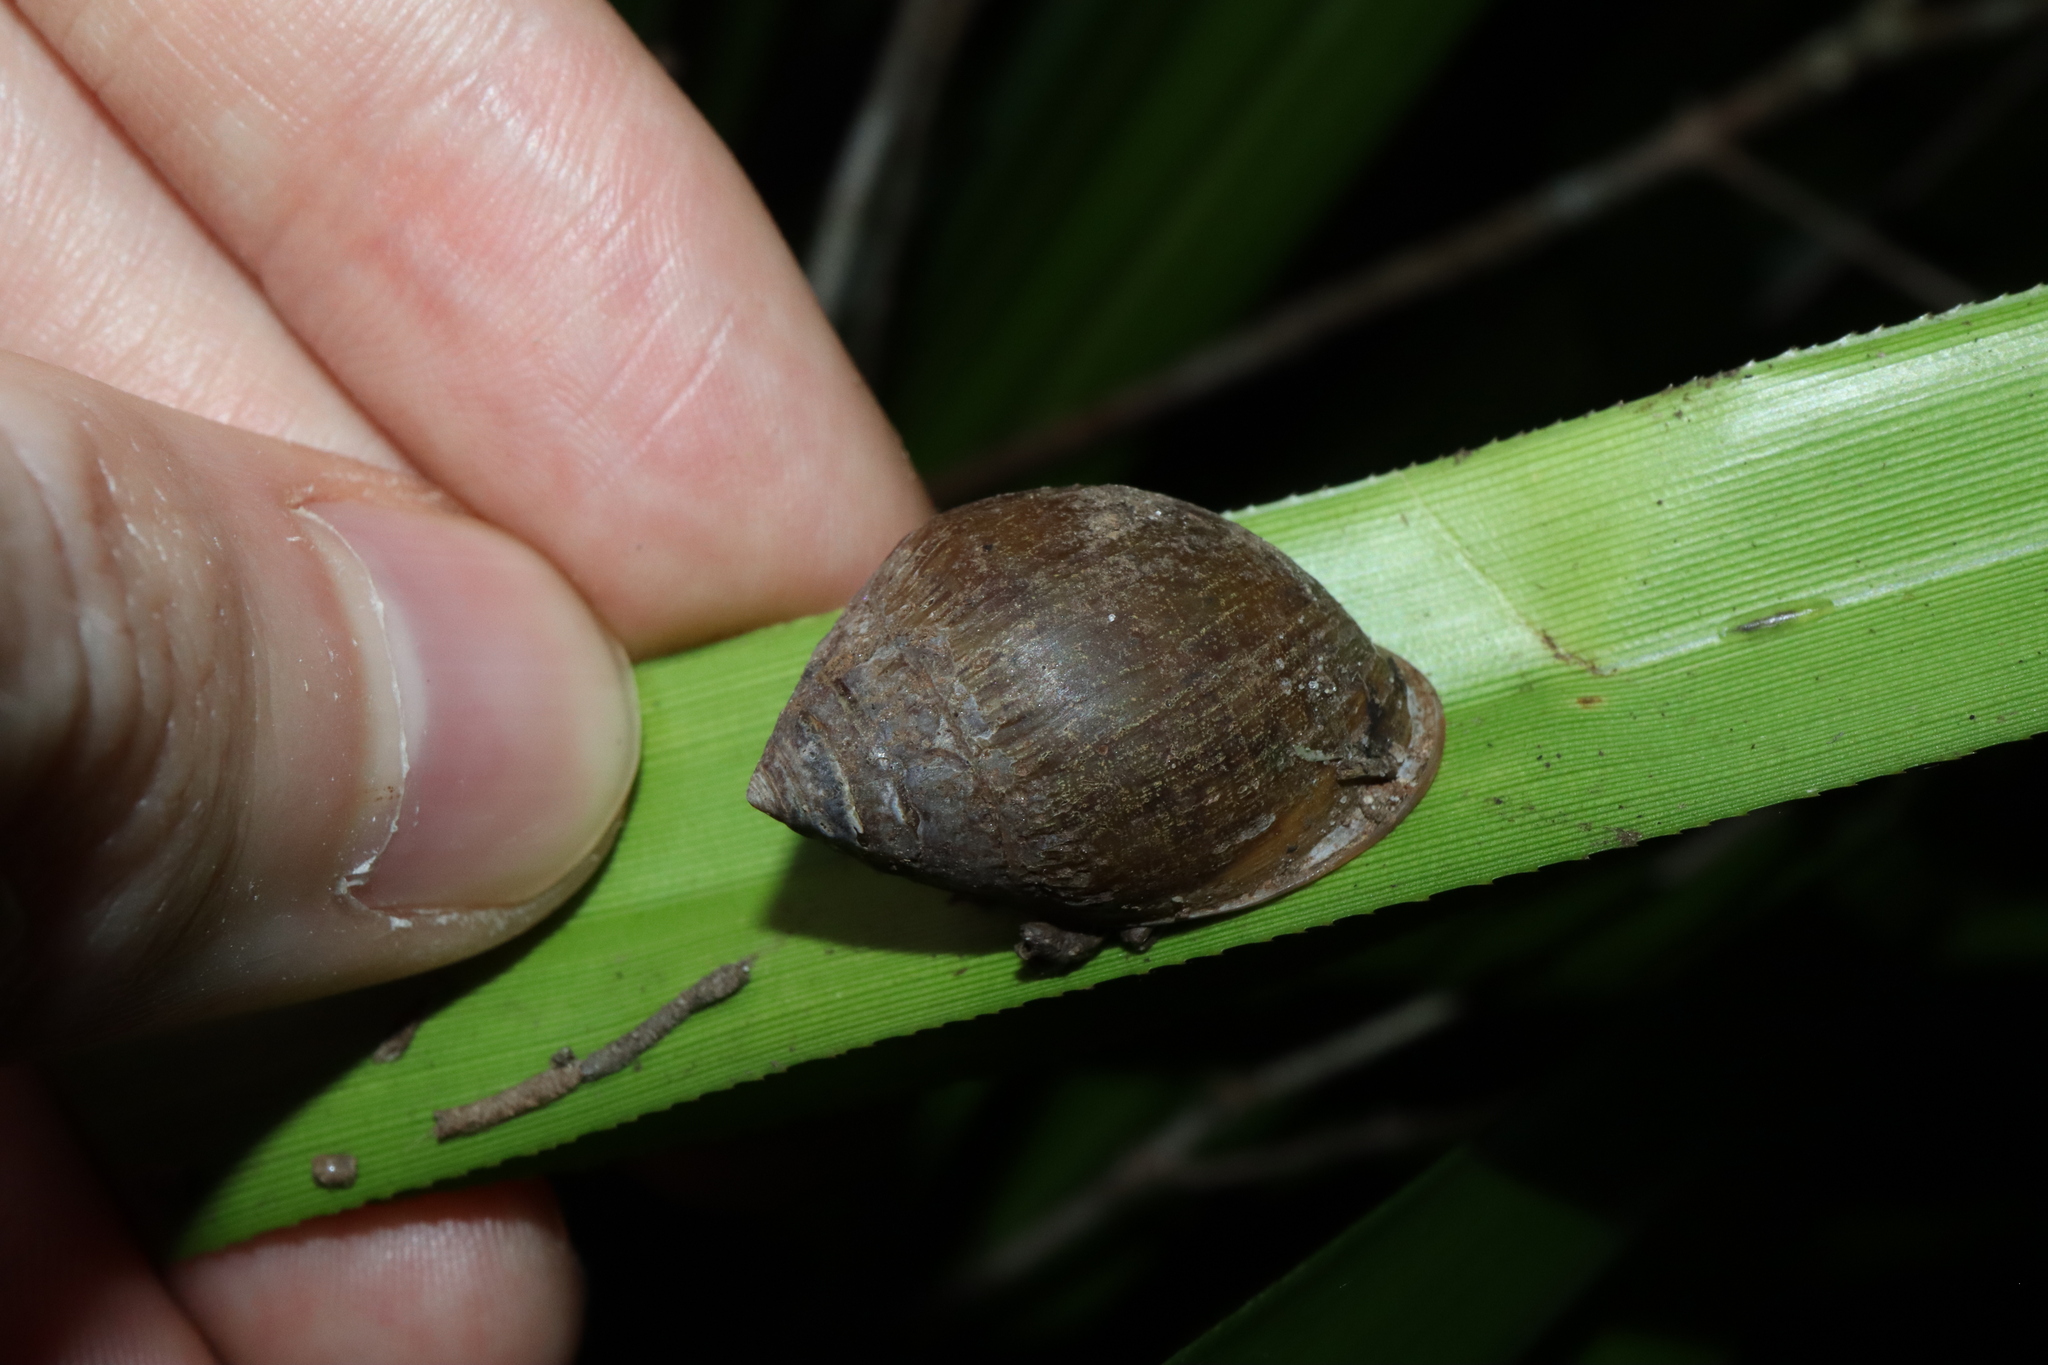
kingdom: Animalia
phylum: Mollusca
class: Gastropoda
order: Ellobiida
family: Ellobiidae
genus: Pythia
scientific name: Pythia scarabaeus
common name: Common pythia
